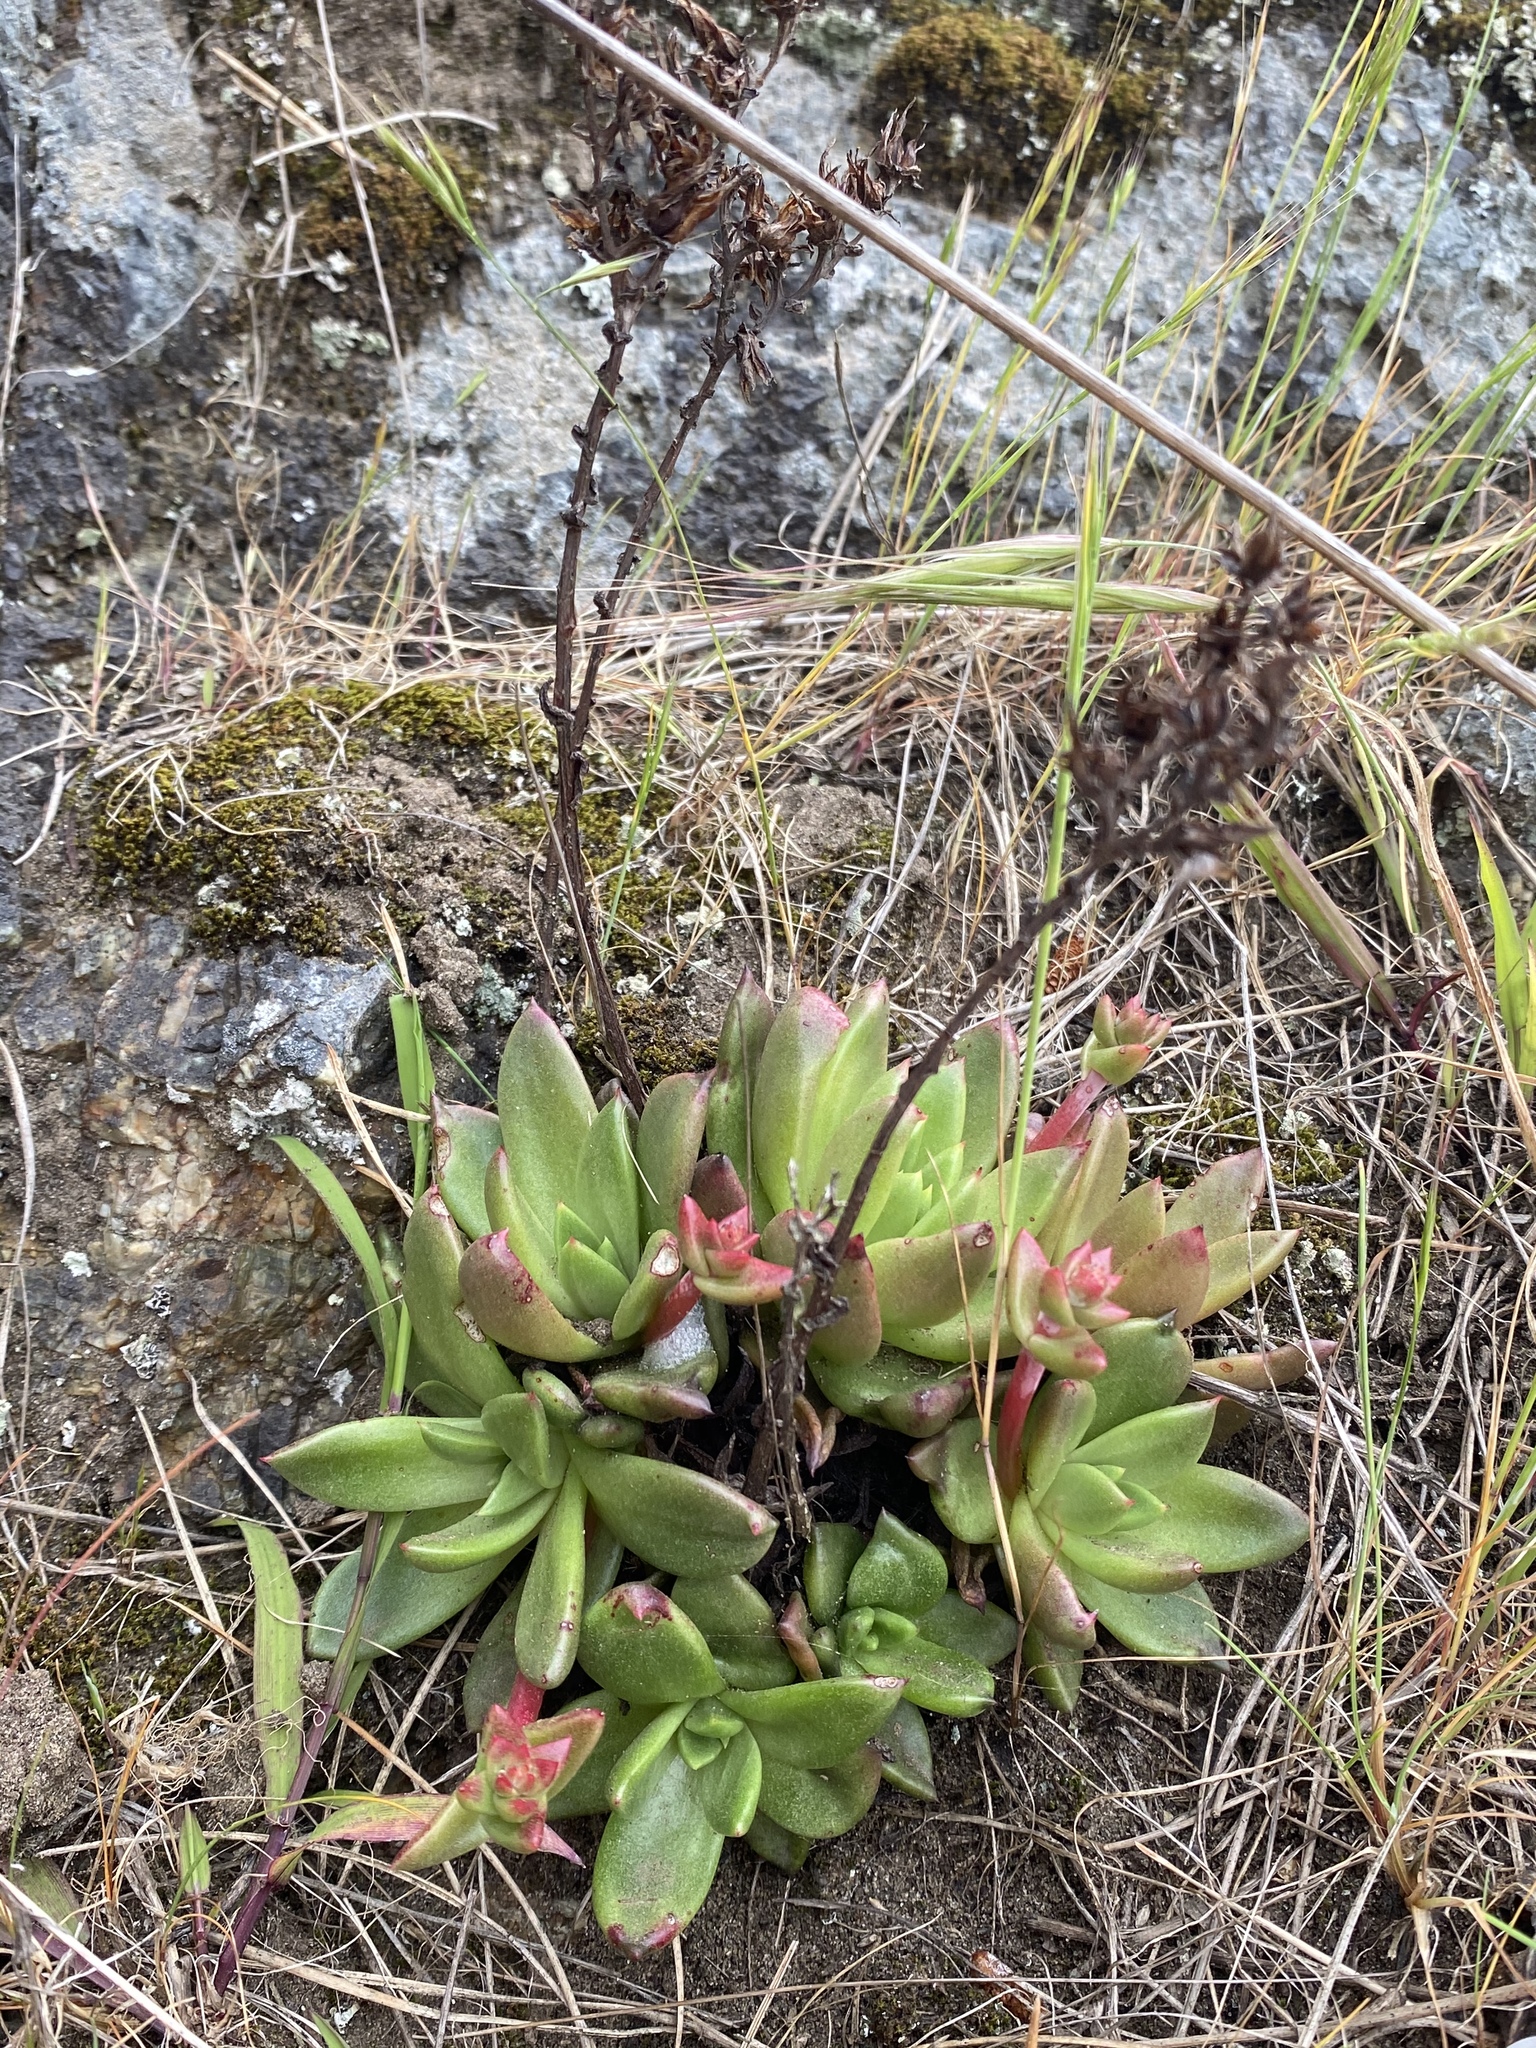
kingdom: Plantae
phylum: Tracheophyta
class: Magnoliopsida
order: Saxifragales
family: Crassulaceae
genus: Dudleya
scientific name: Dudleya farinosa
